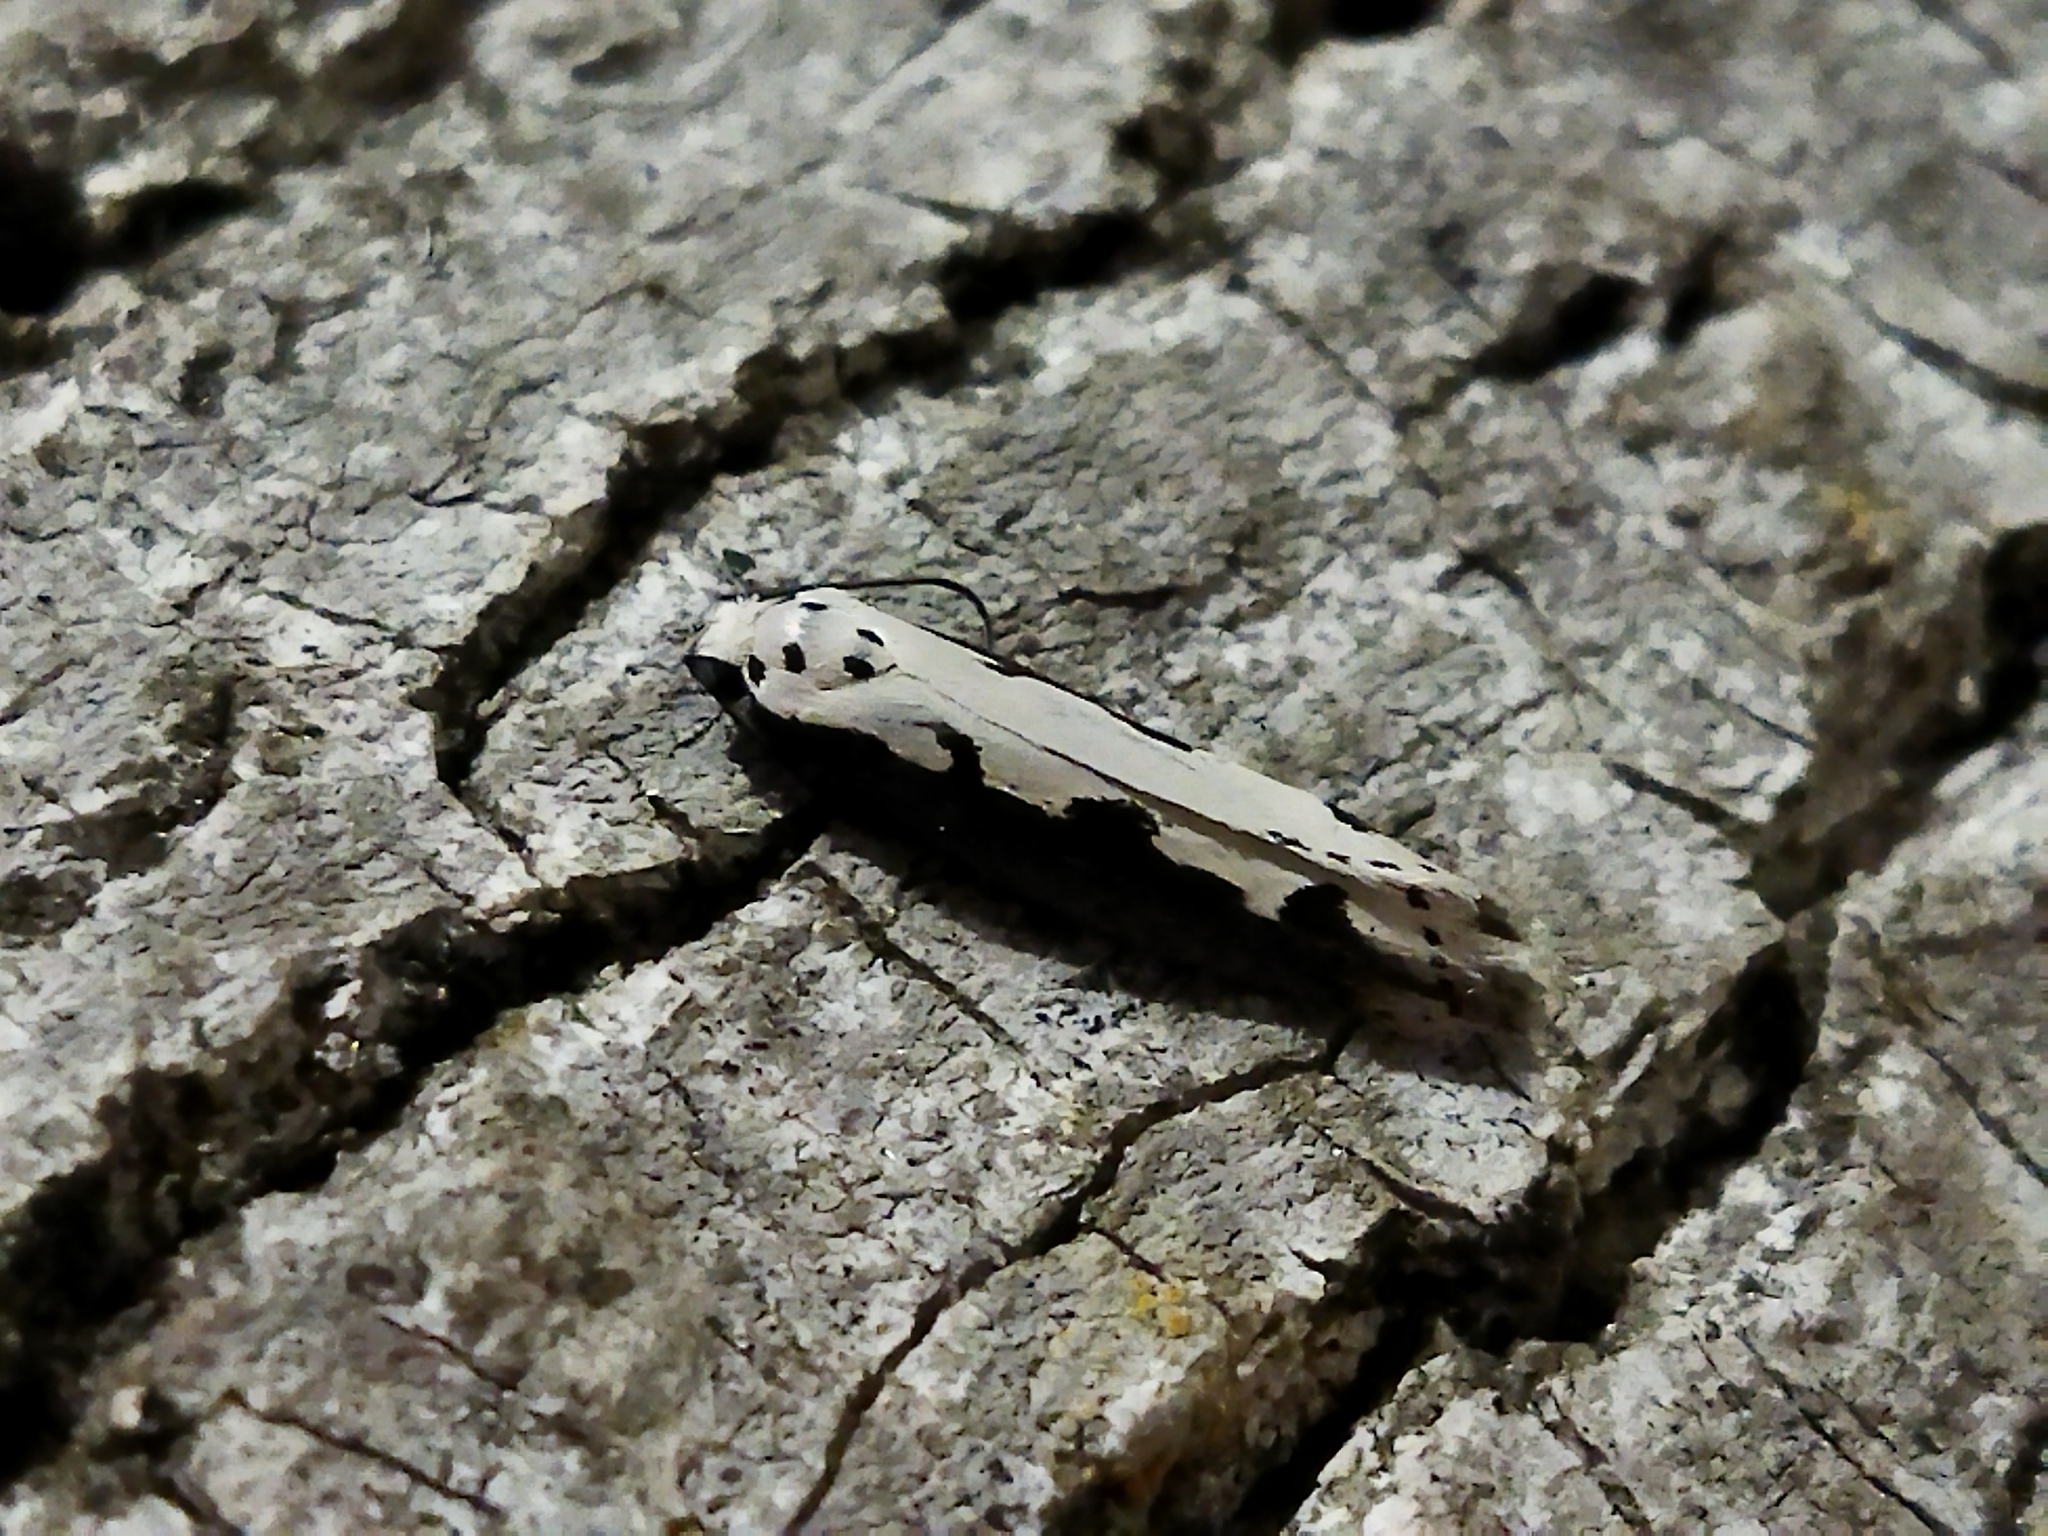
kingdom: Animalia
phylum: Arthropoda
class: Insecta
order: Lepidoptera
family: Ethmiidae
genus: Ethmia
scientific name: Ethmia bipunctella
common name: Bordered ermel
